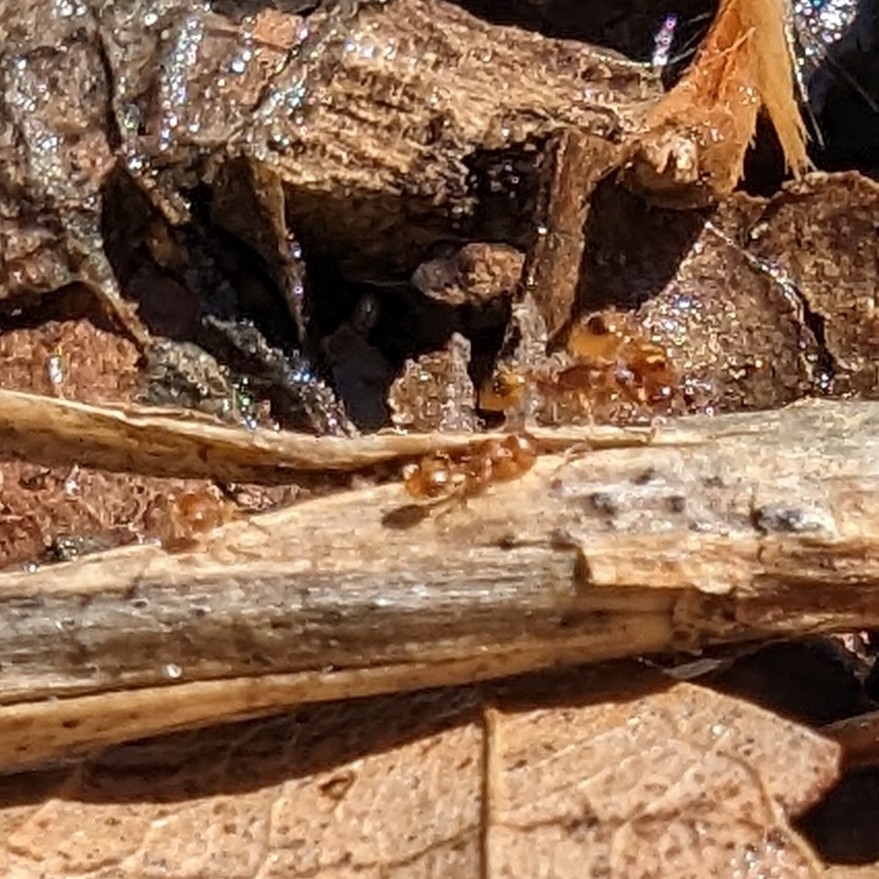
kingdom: Animalia
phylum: Arthropoda
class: Insecta
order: Hymenoptera
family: Formicidae
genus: Temnothorax
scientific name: Temnothorax curvispinosus
